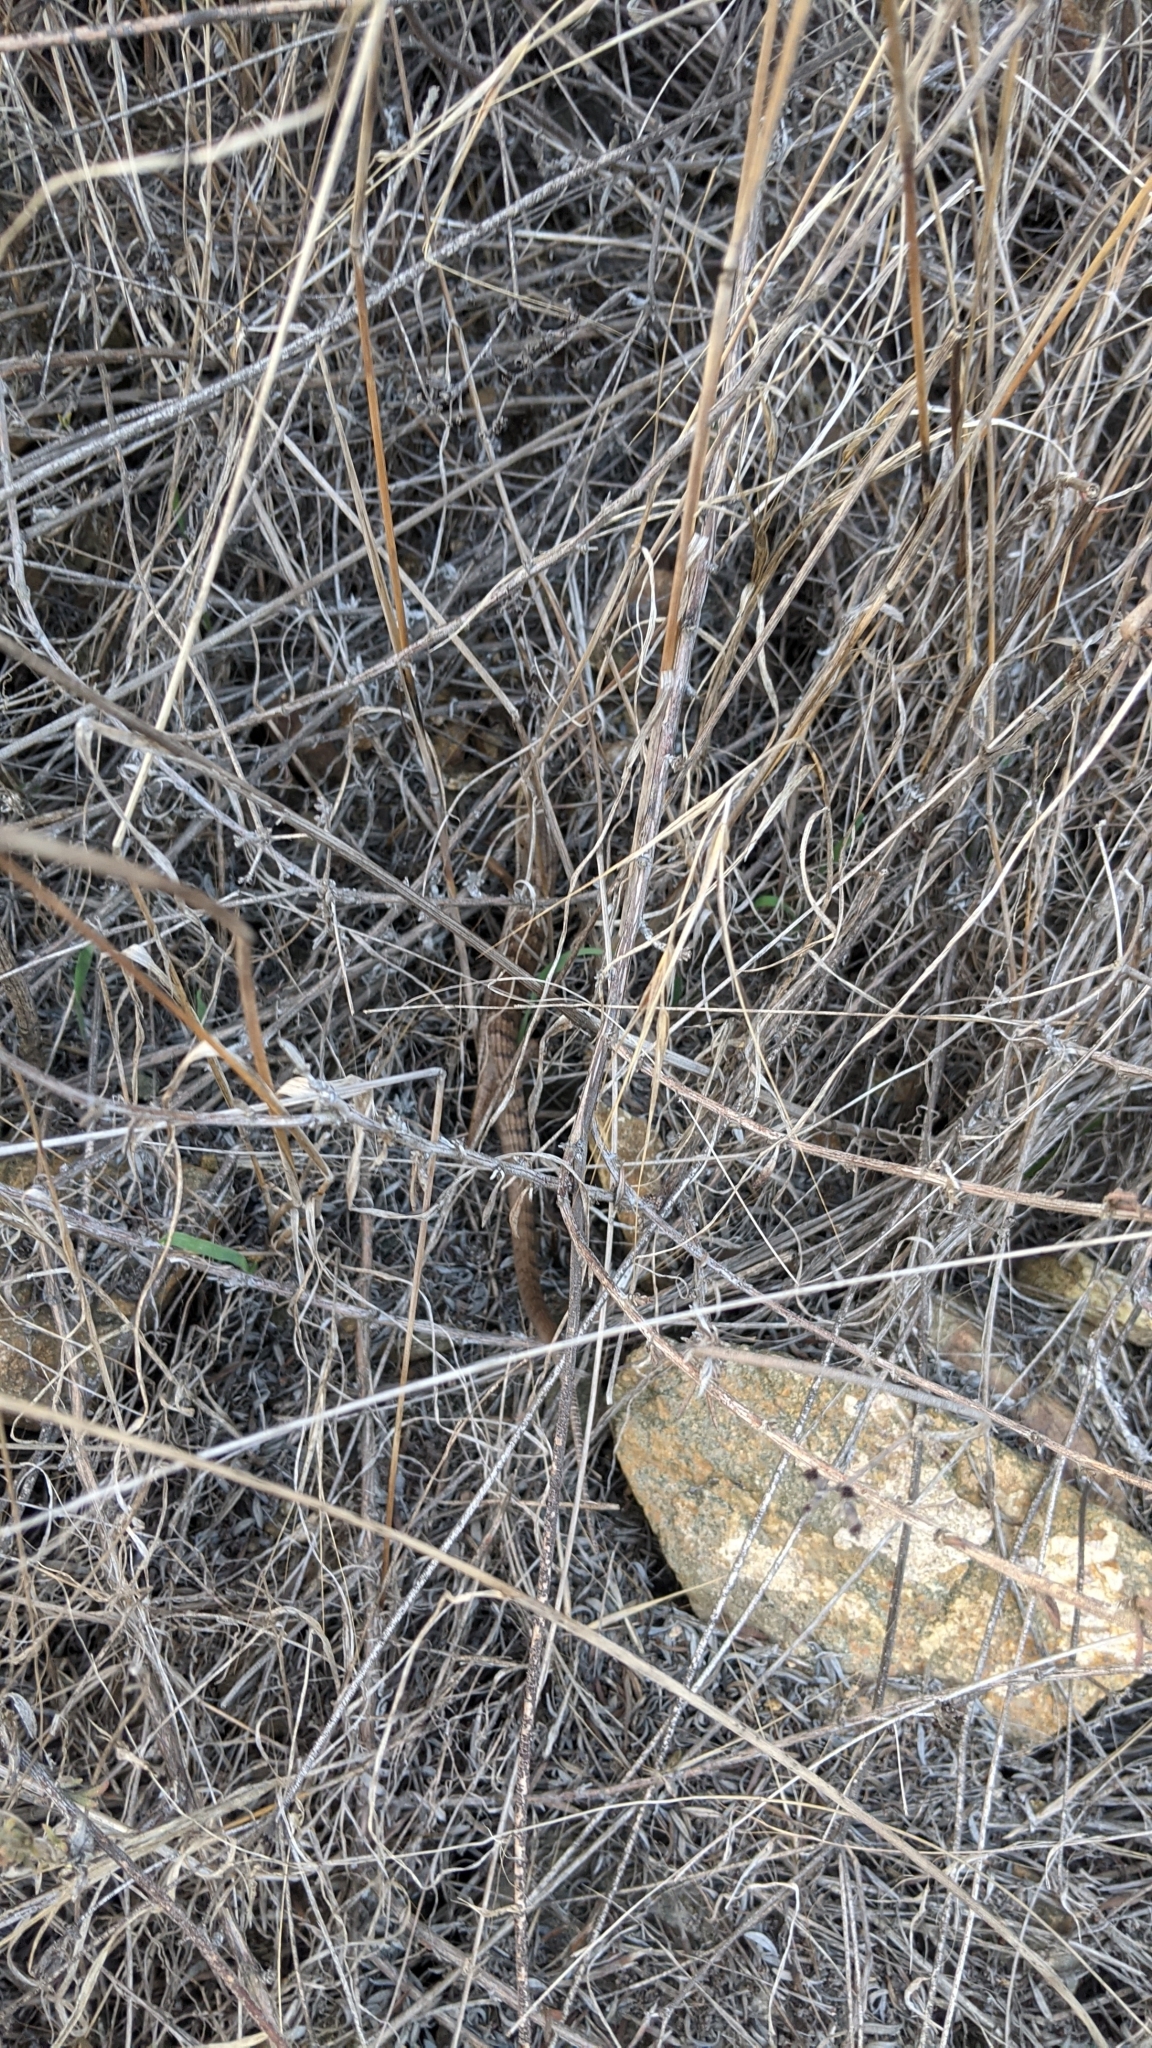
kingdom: Animalia
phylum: Chordata
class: Squamata
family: Anguidae
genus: Elgaria
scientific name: Elgaria multicarinata
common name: Southern alligator lizard
